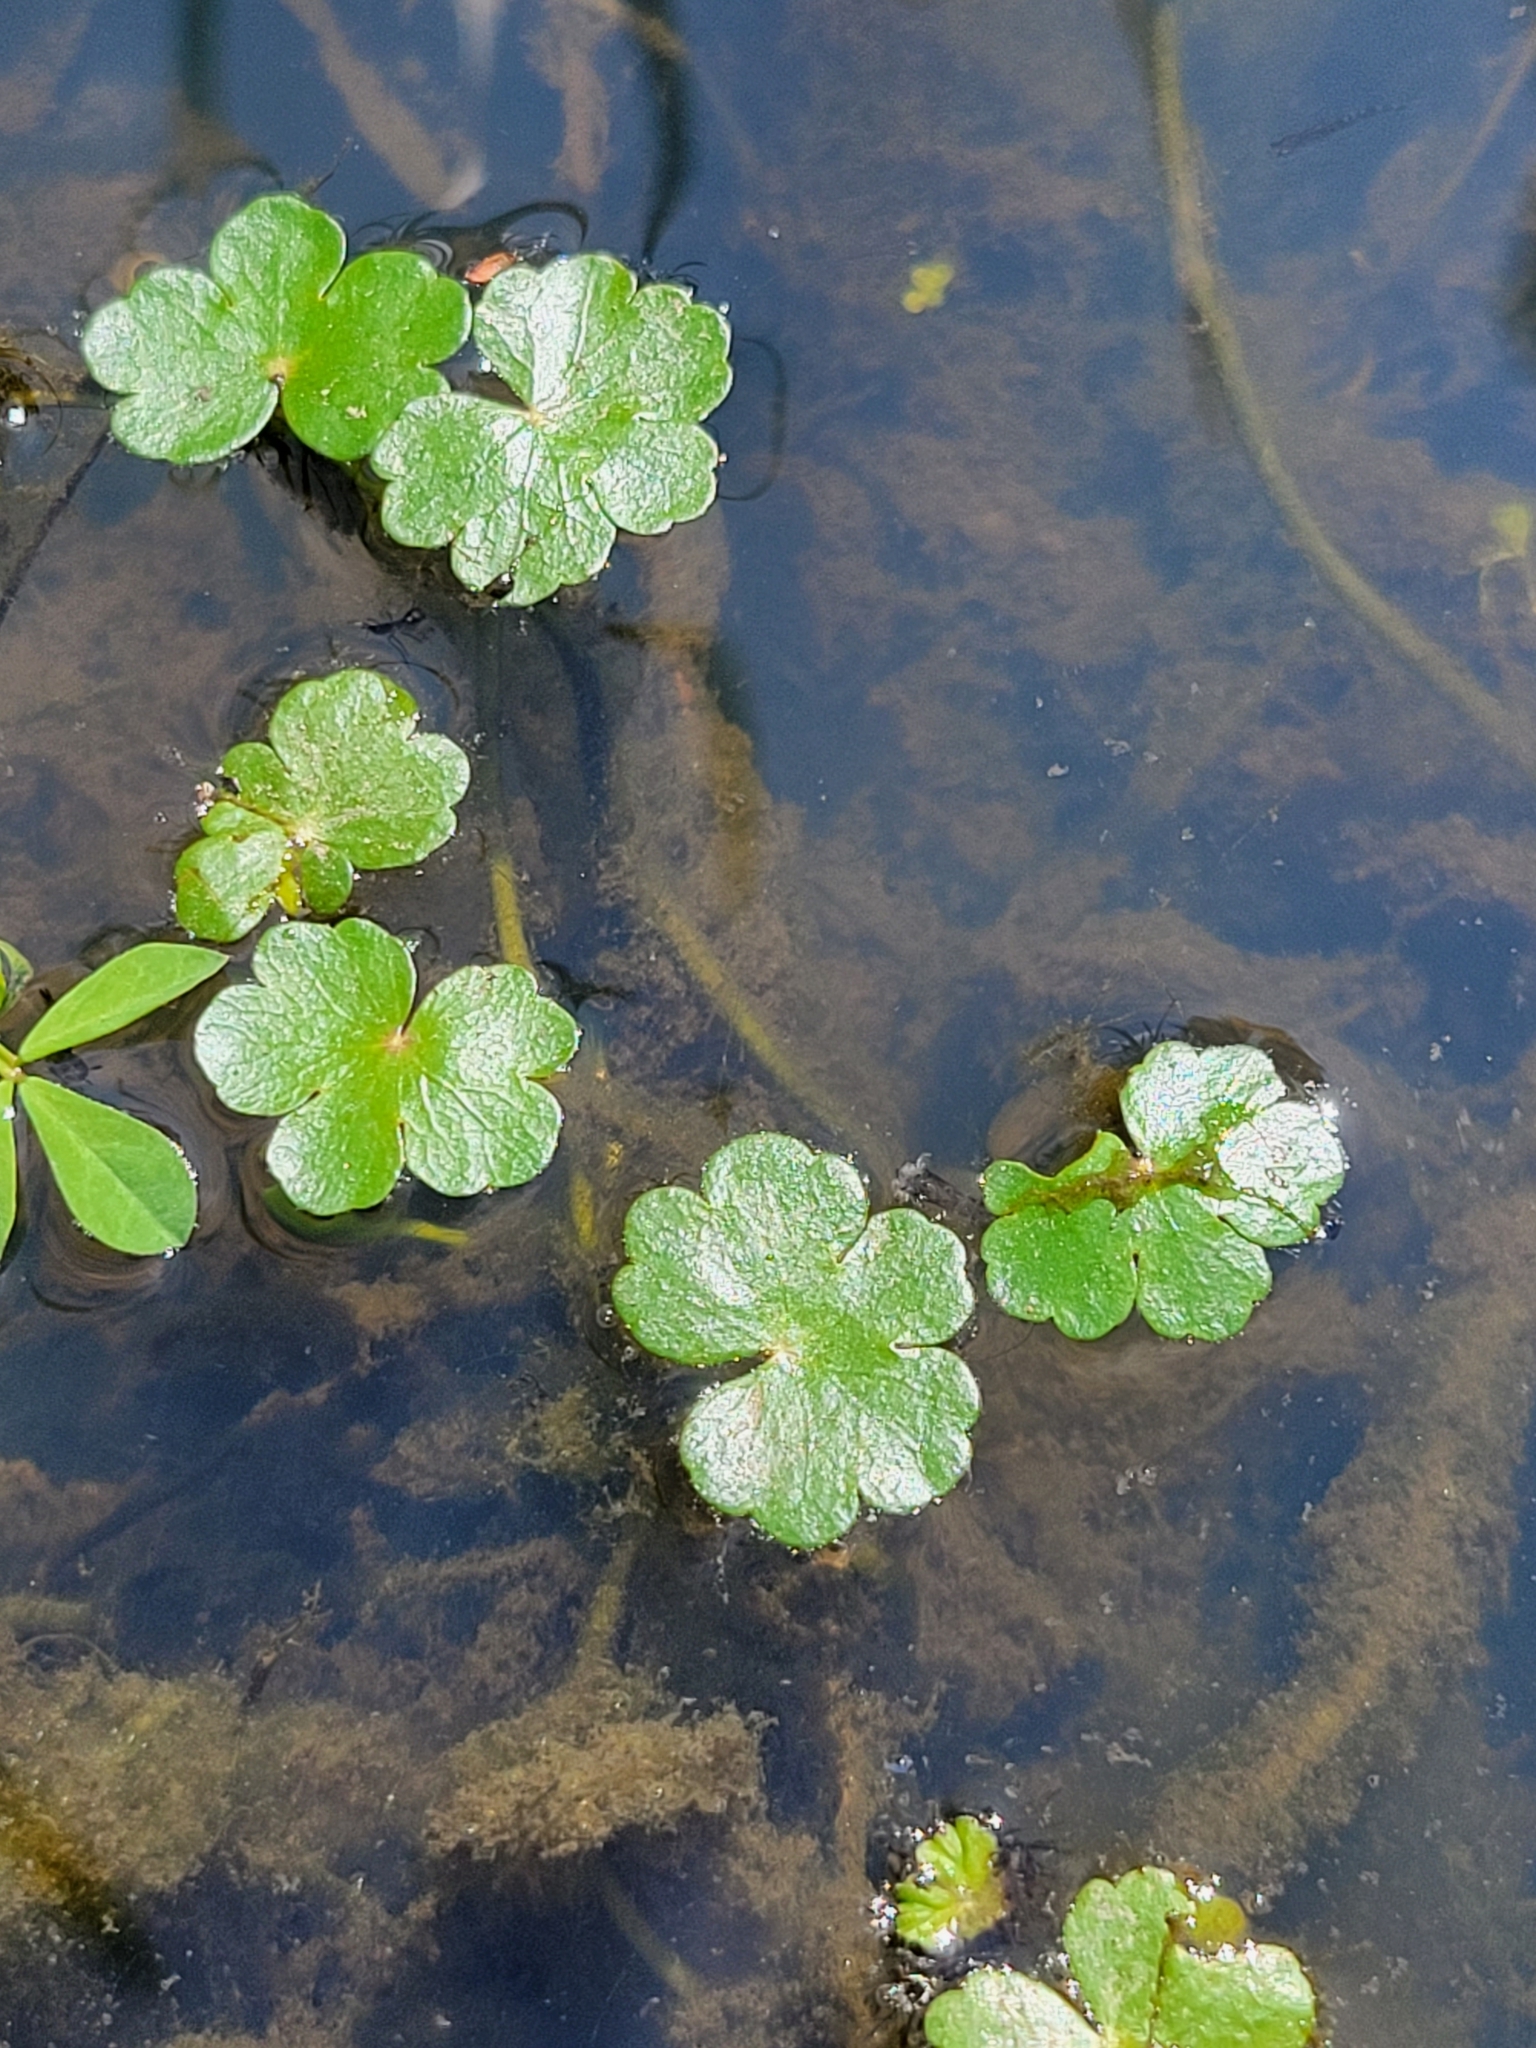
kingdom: Plantae
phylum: Tracheophyta
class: Magnoliopsida
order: Apiales
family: Araliaceae
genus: Hydrocotyle
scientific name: Hydrocotyle ranunculoides
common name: Floating pennywort
